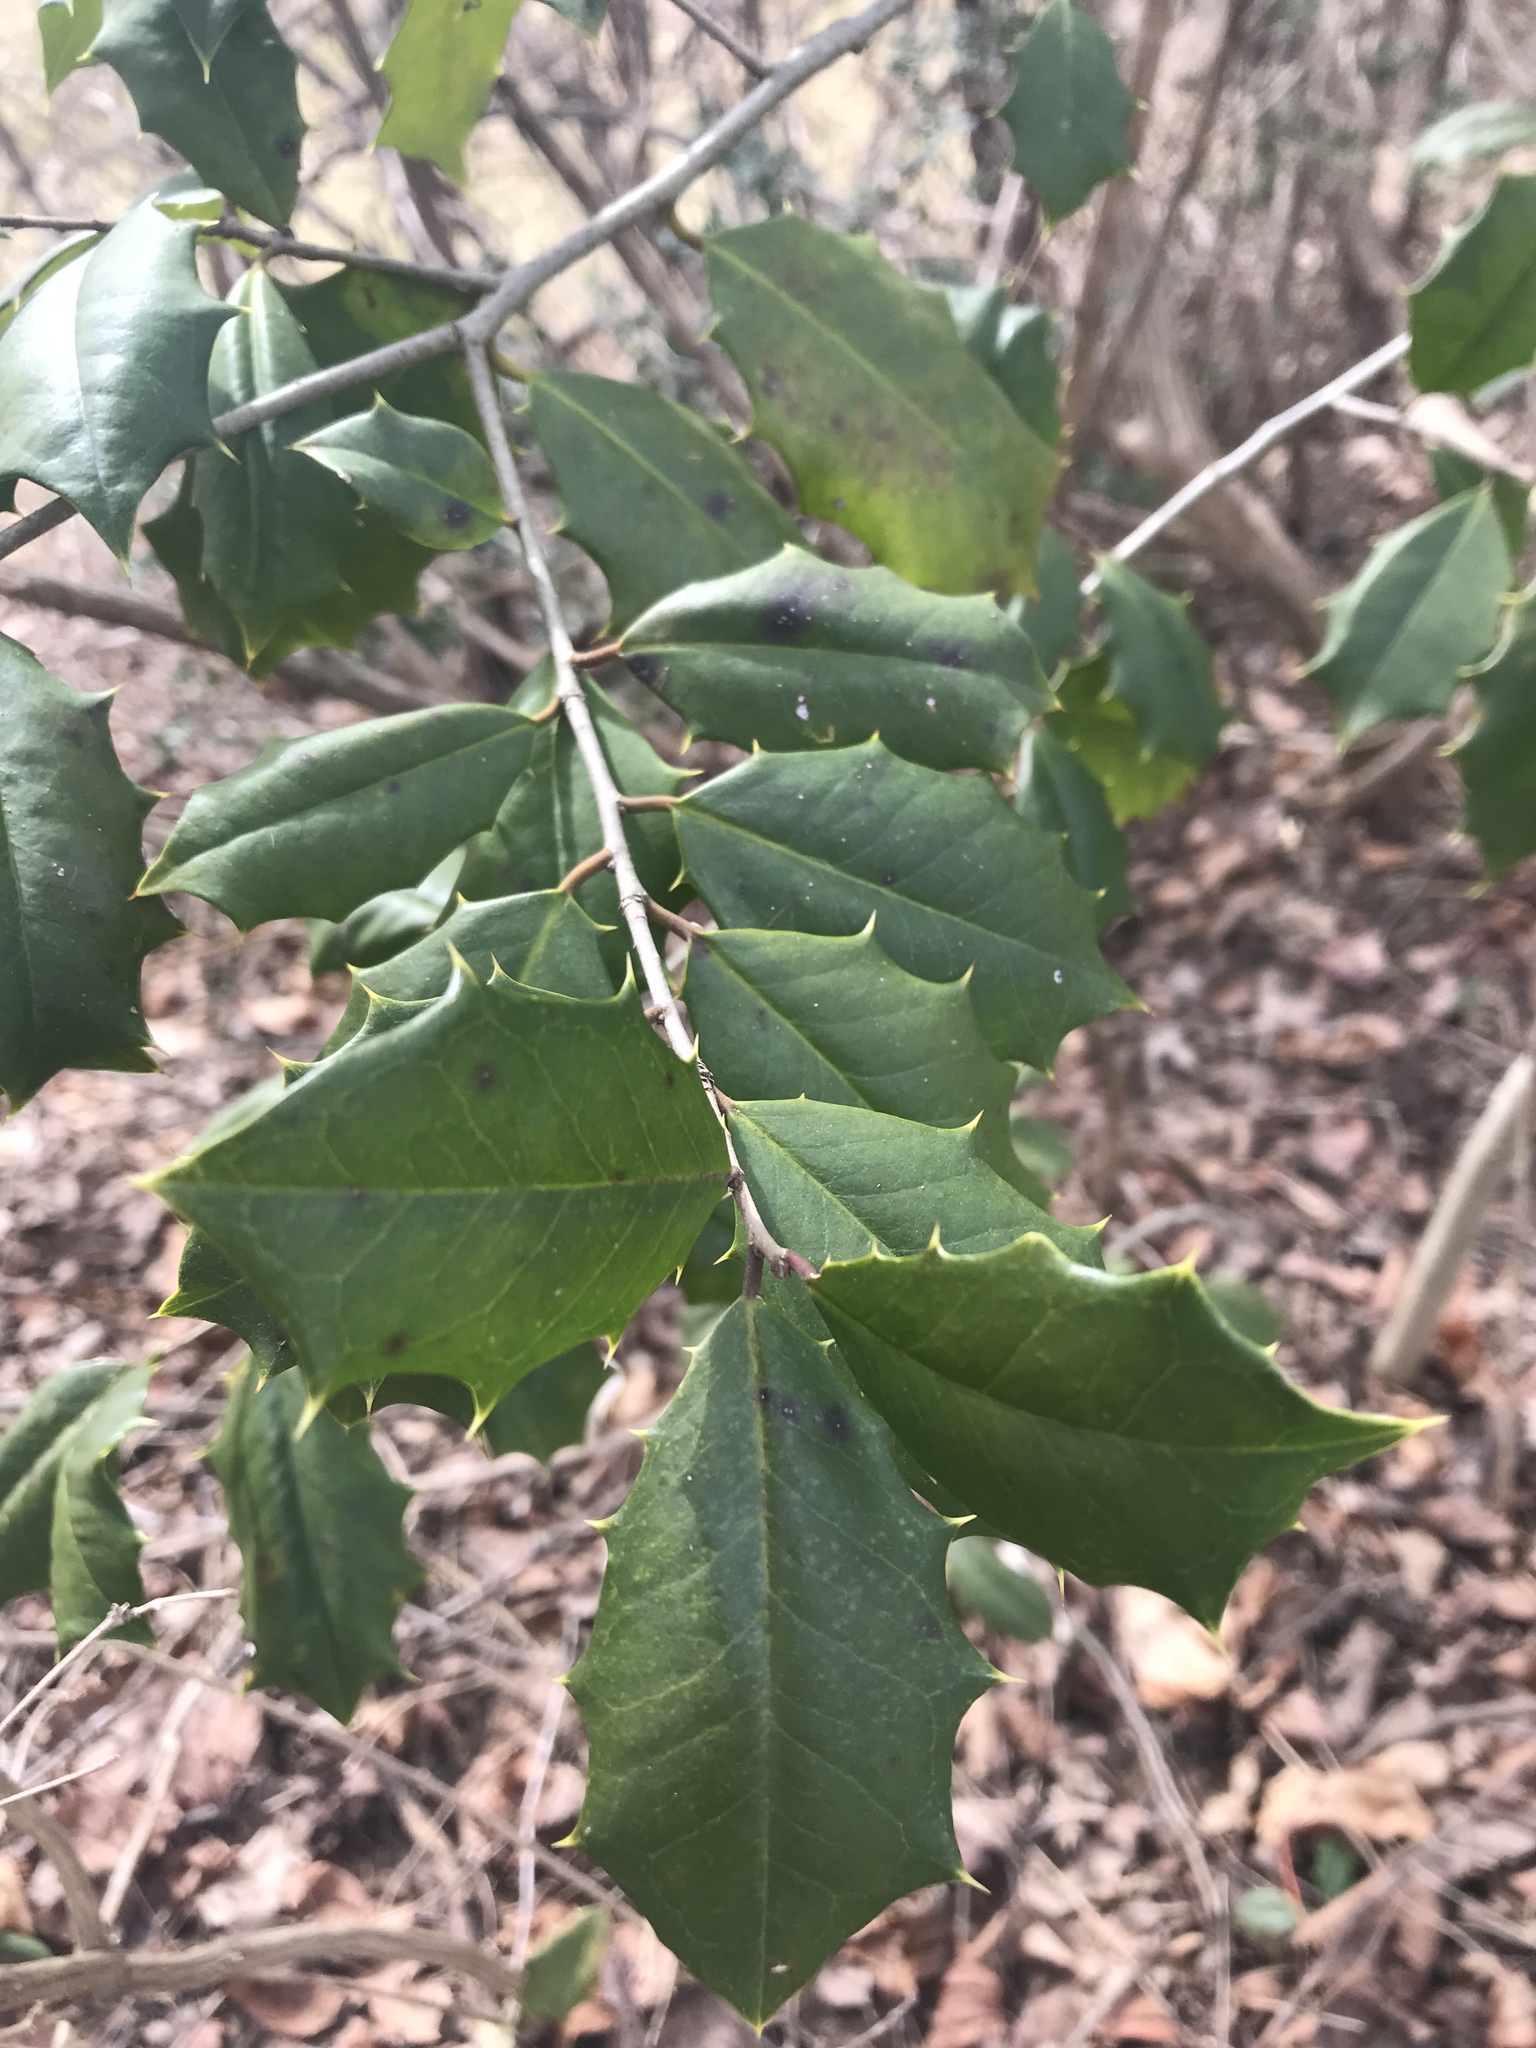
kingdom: Plantae
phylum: Tracheophyta
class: Magnoliopsida
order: Aquifoliales
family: Aquifoliaceae
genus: Ilex
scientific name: Ilex opaca
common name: American holly
